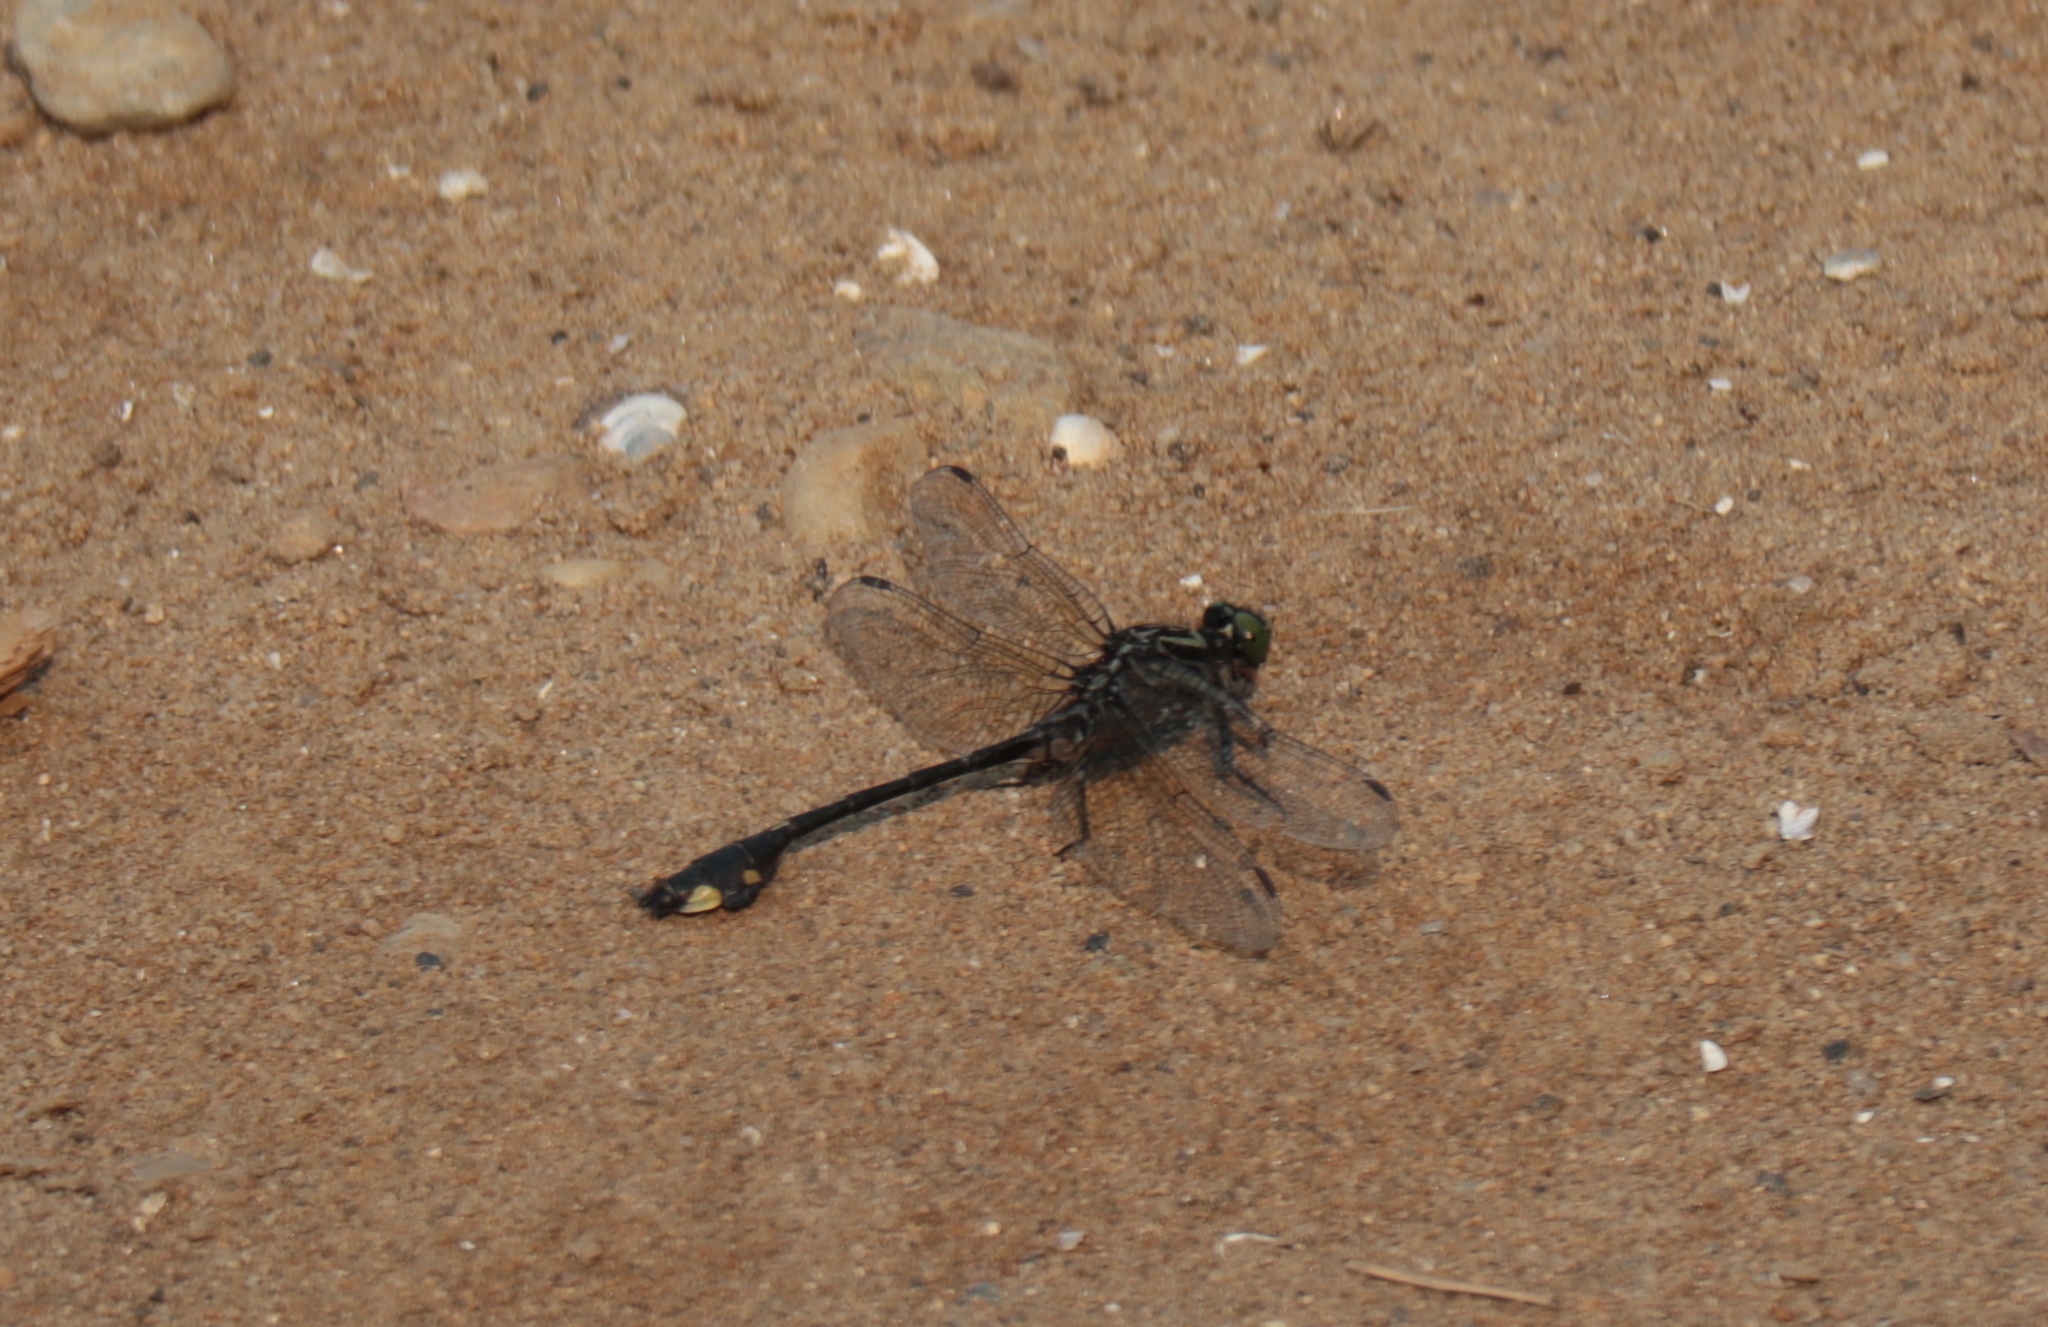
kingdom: Animalia
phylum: Arthropoda
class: Insecta
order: Odonata
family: Gomphidae
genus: Gomphurus
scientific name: Gomphurus vastus
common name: Cobra clubtail
